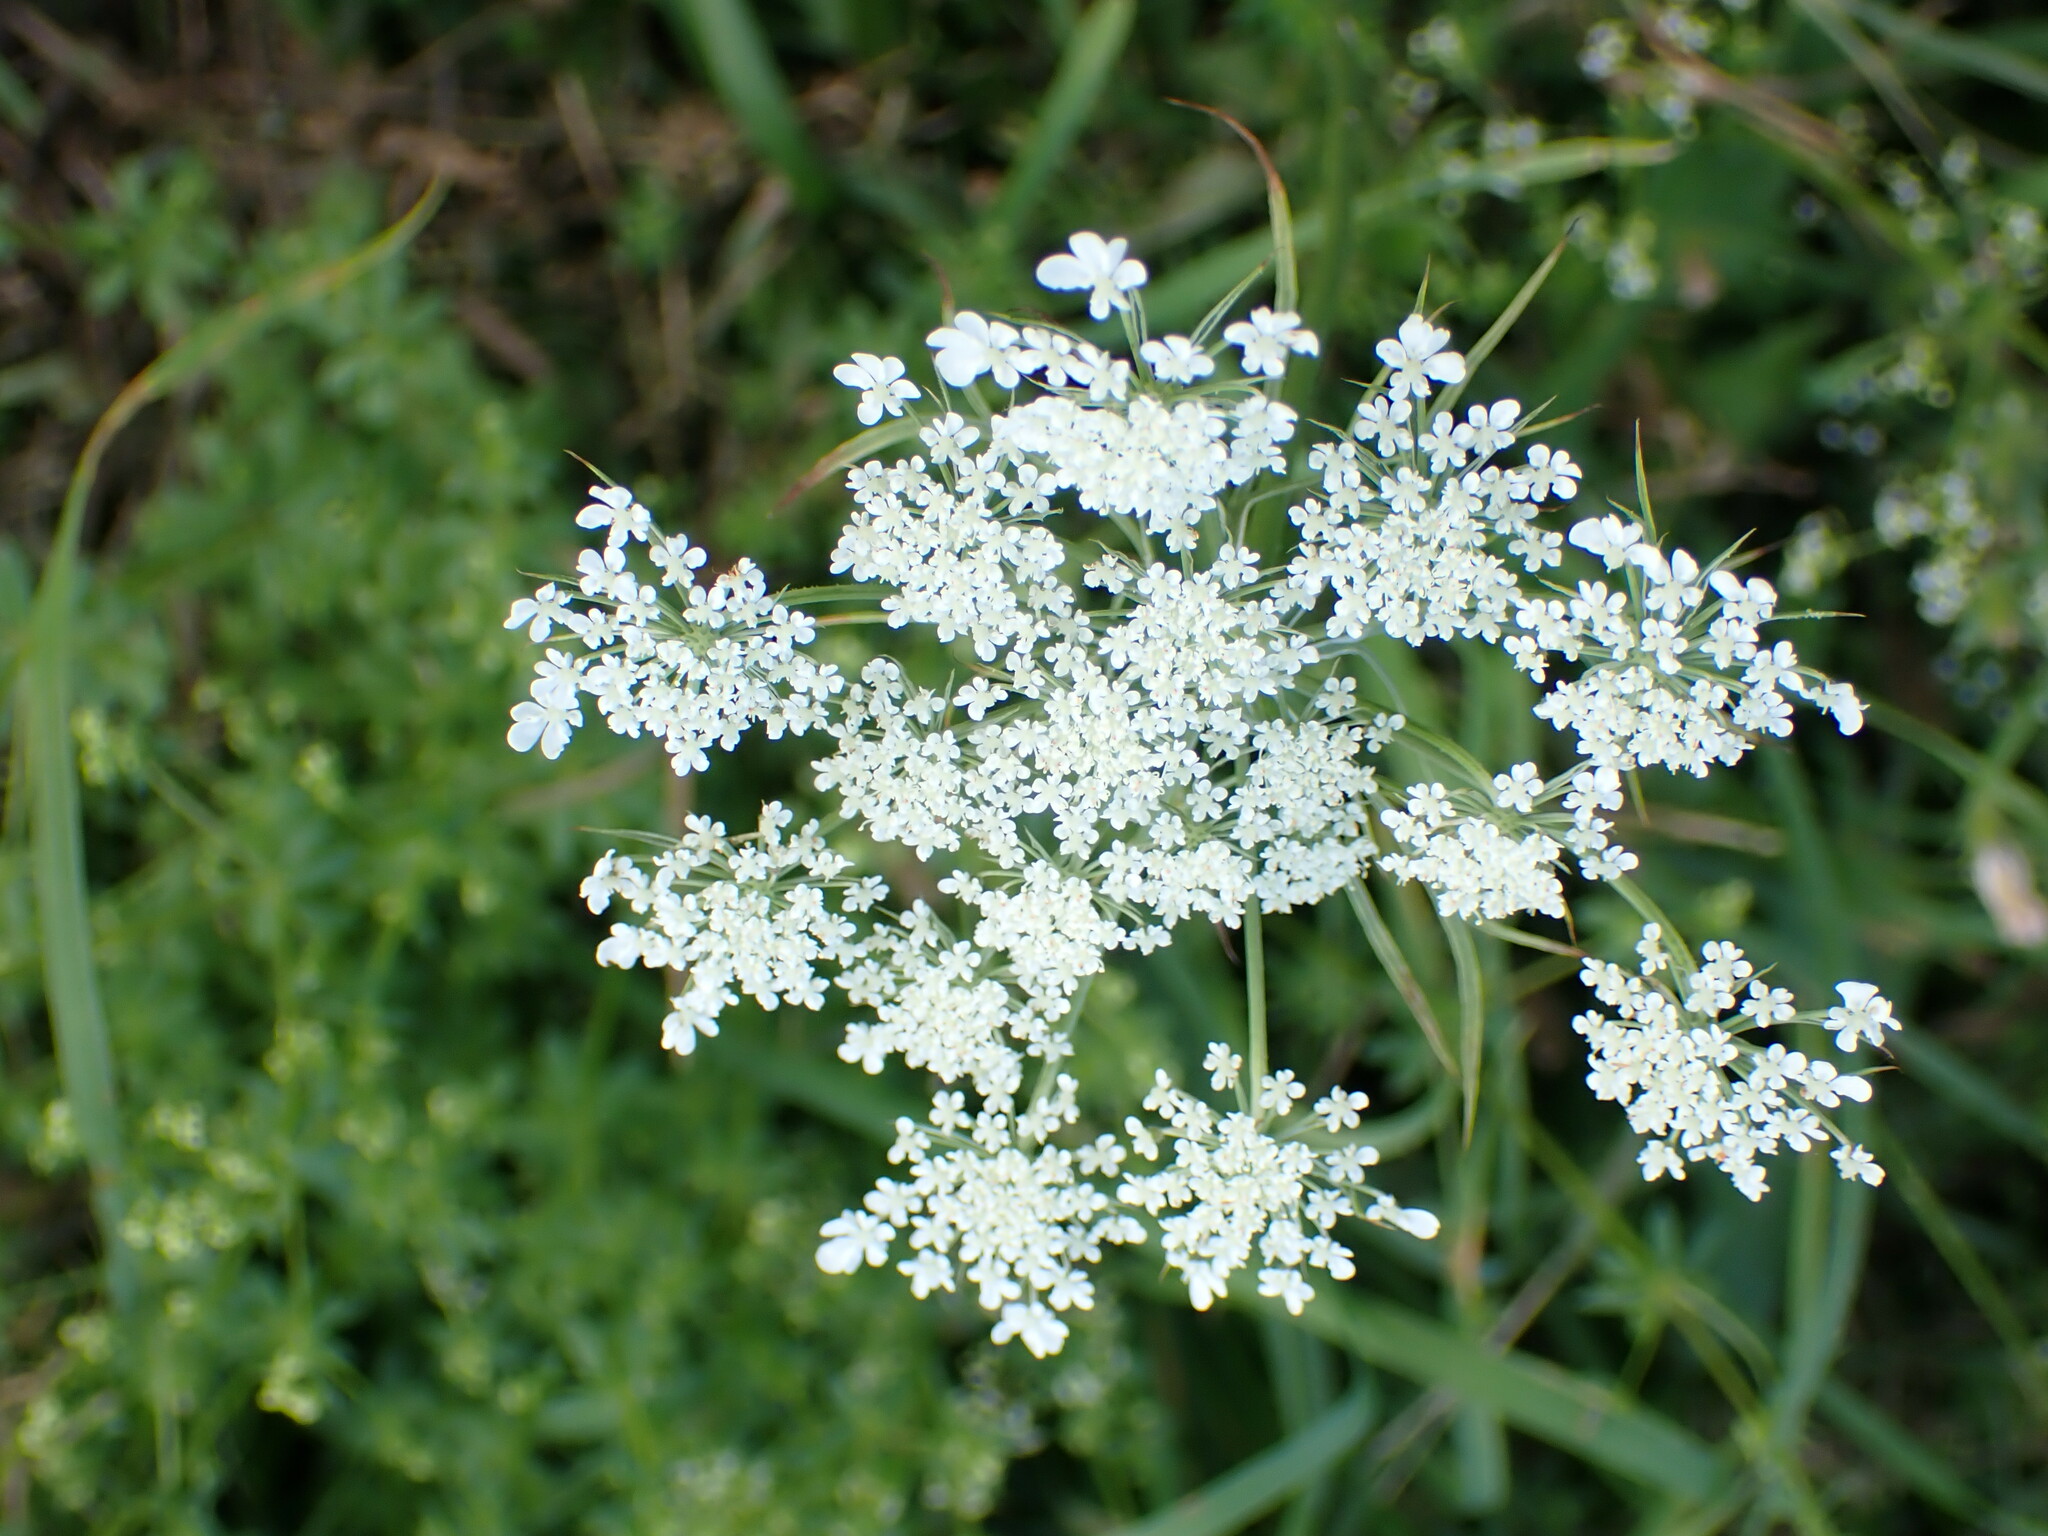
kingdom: Plantae
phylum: Tracheophyta
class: Magnoliopsida
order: Apiales
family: Apiaceae
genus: Daucus
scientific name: Daucus carota
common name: Wild carrot
